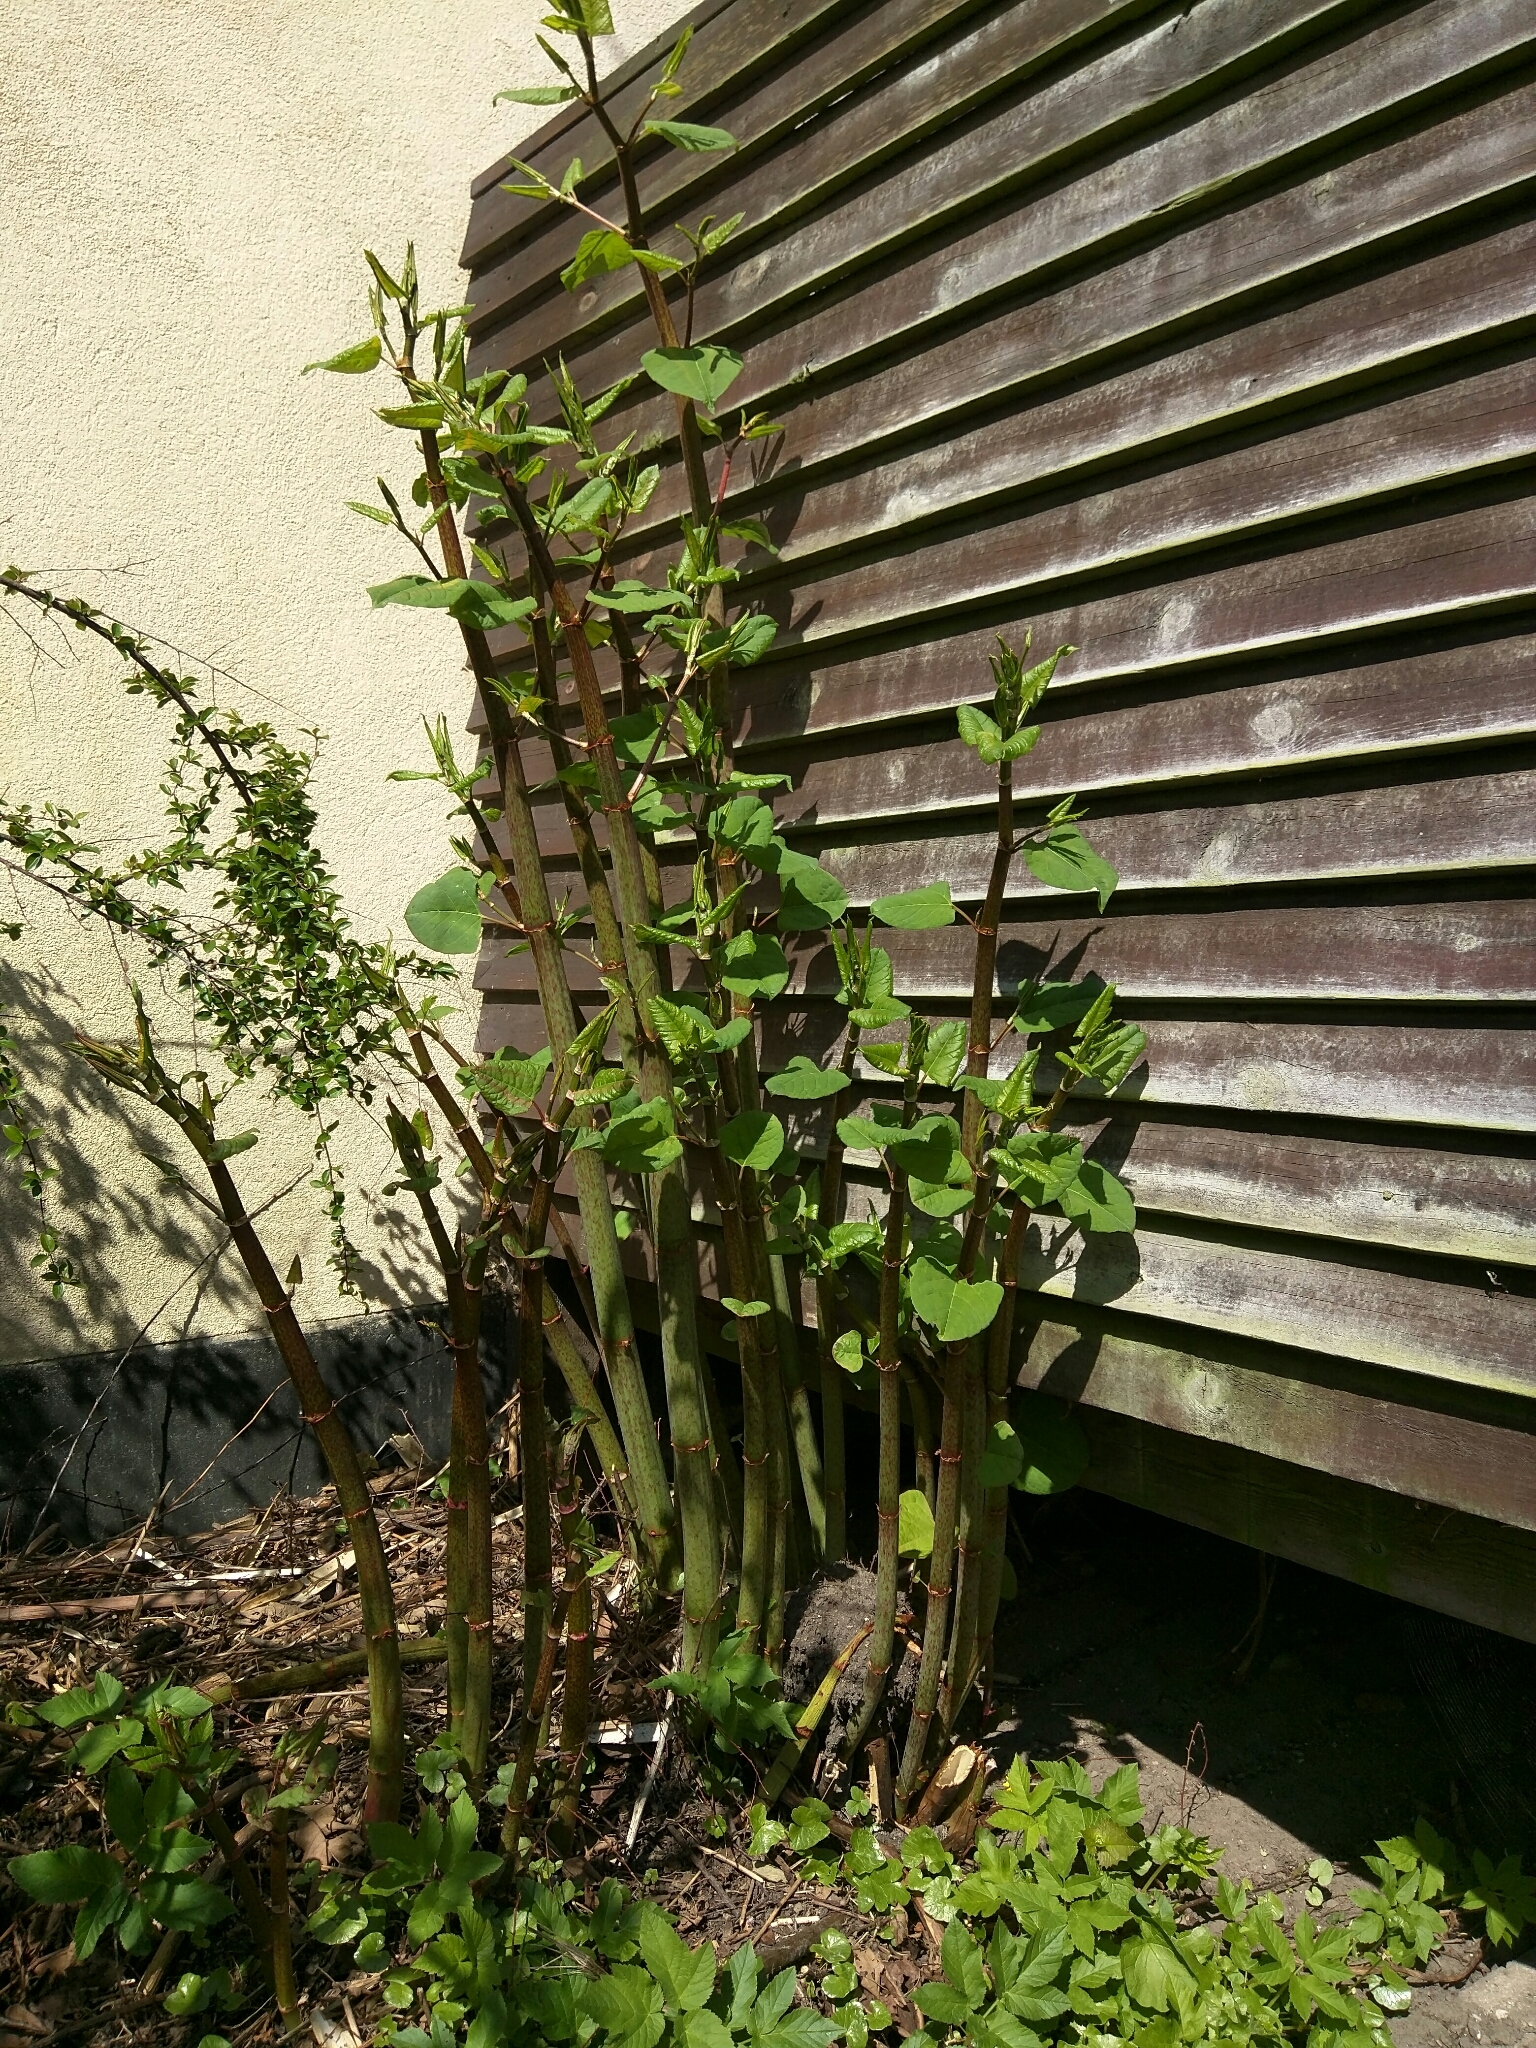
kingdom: Plantae
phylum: Tracheophyta
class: Magnoliopsida
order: Caryophyllales
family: Polygonaceae
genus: Reynoutria
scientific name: Reynoutria japonica
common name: Japanese knotweed
